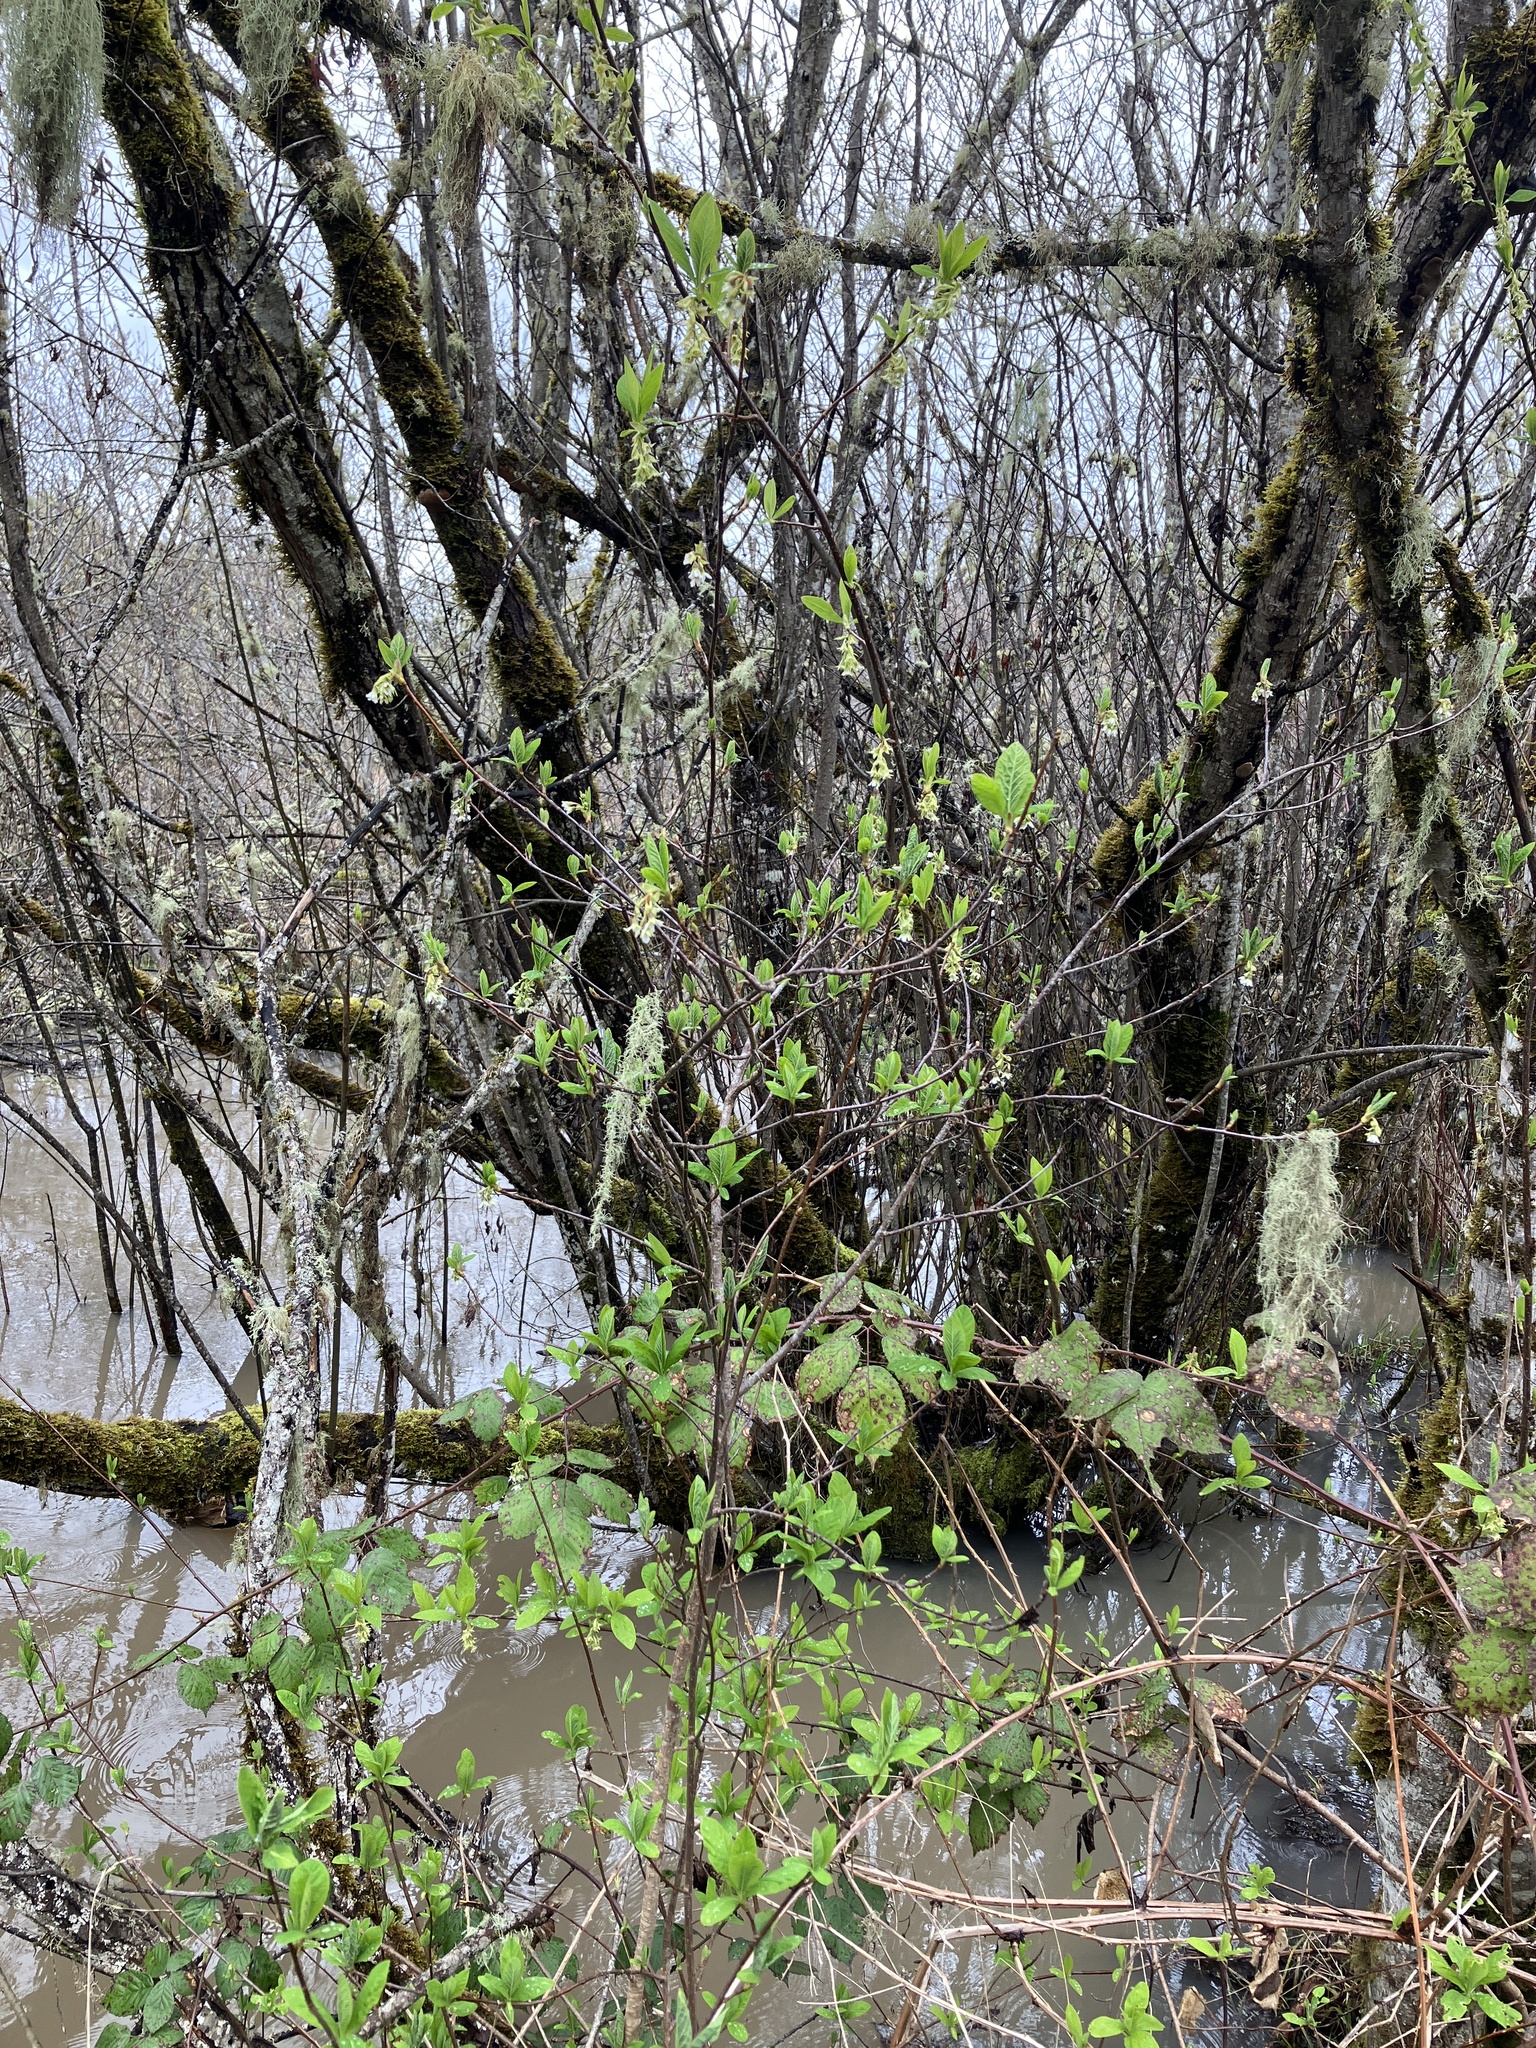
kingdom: Plantae
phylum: Tracheophyta
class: Magnoliopsida
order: Rosales
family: Rosaceae
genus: Oemleria
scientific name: Oemleria cerasiformis
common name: Osoberry
